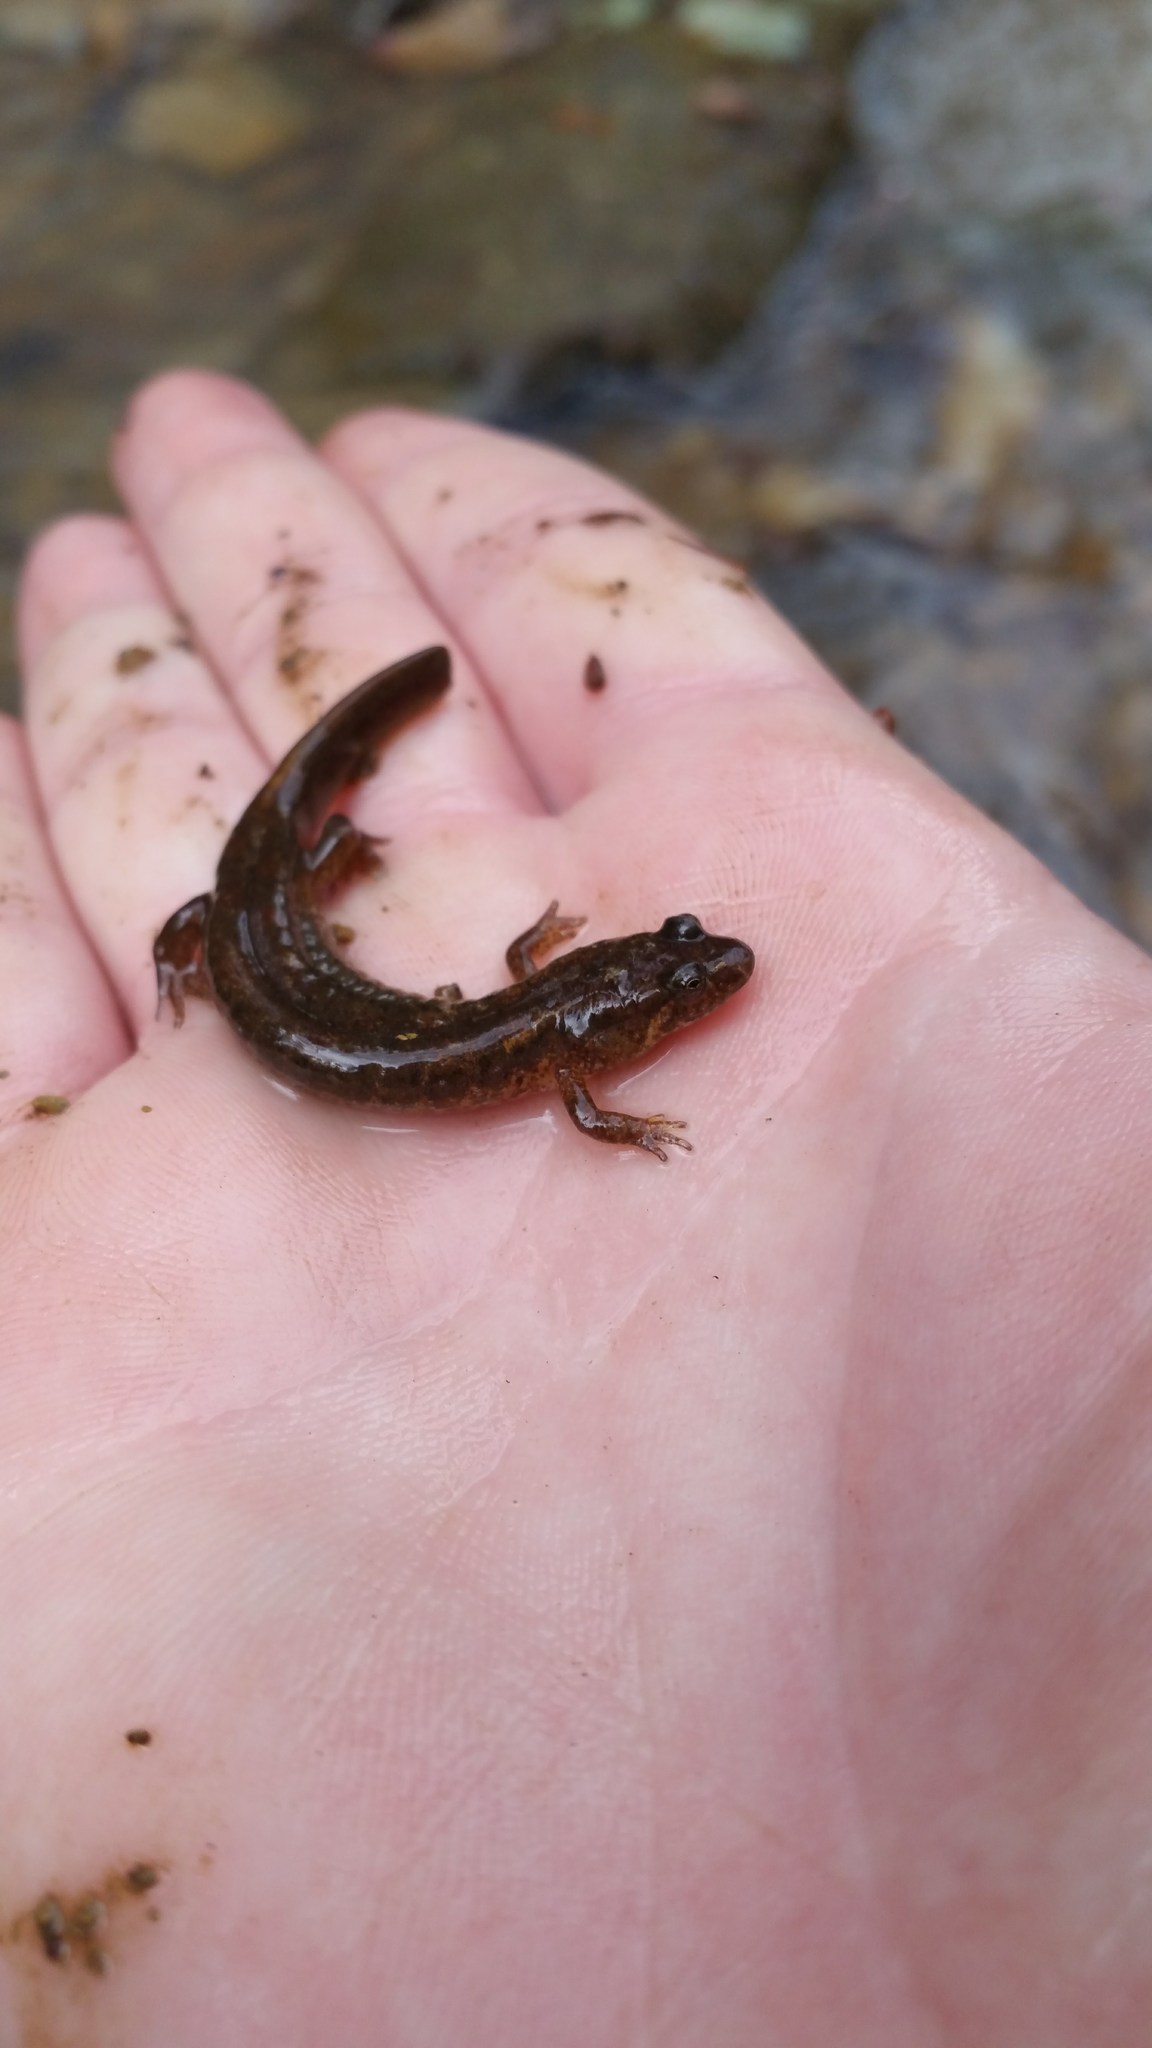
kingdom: Animalia
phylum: Chordata
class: Amphibia
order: Caudata
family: Plethodontidae
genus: Desmognathus
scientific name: Desmognathus fuscus
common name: Northern dusky salamander
